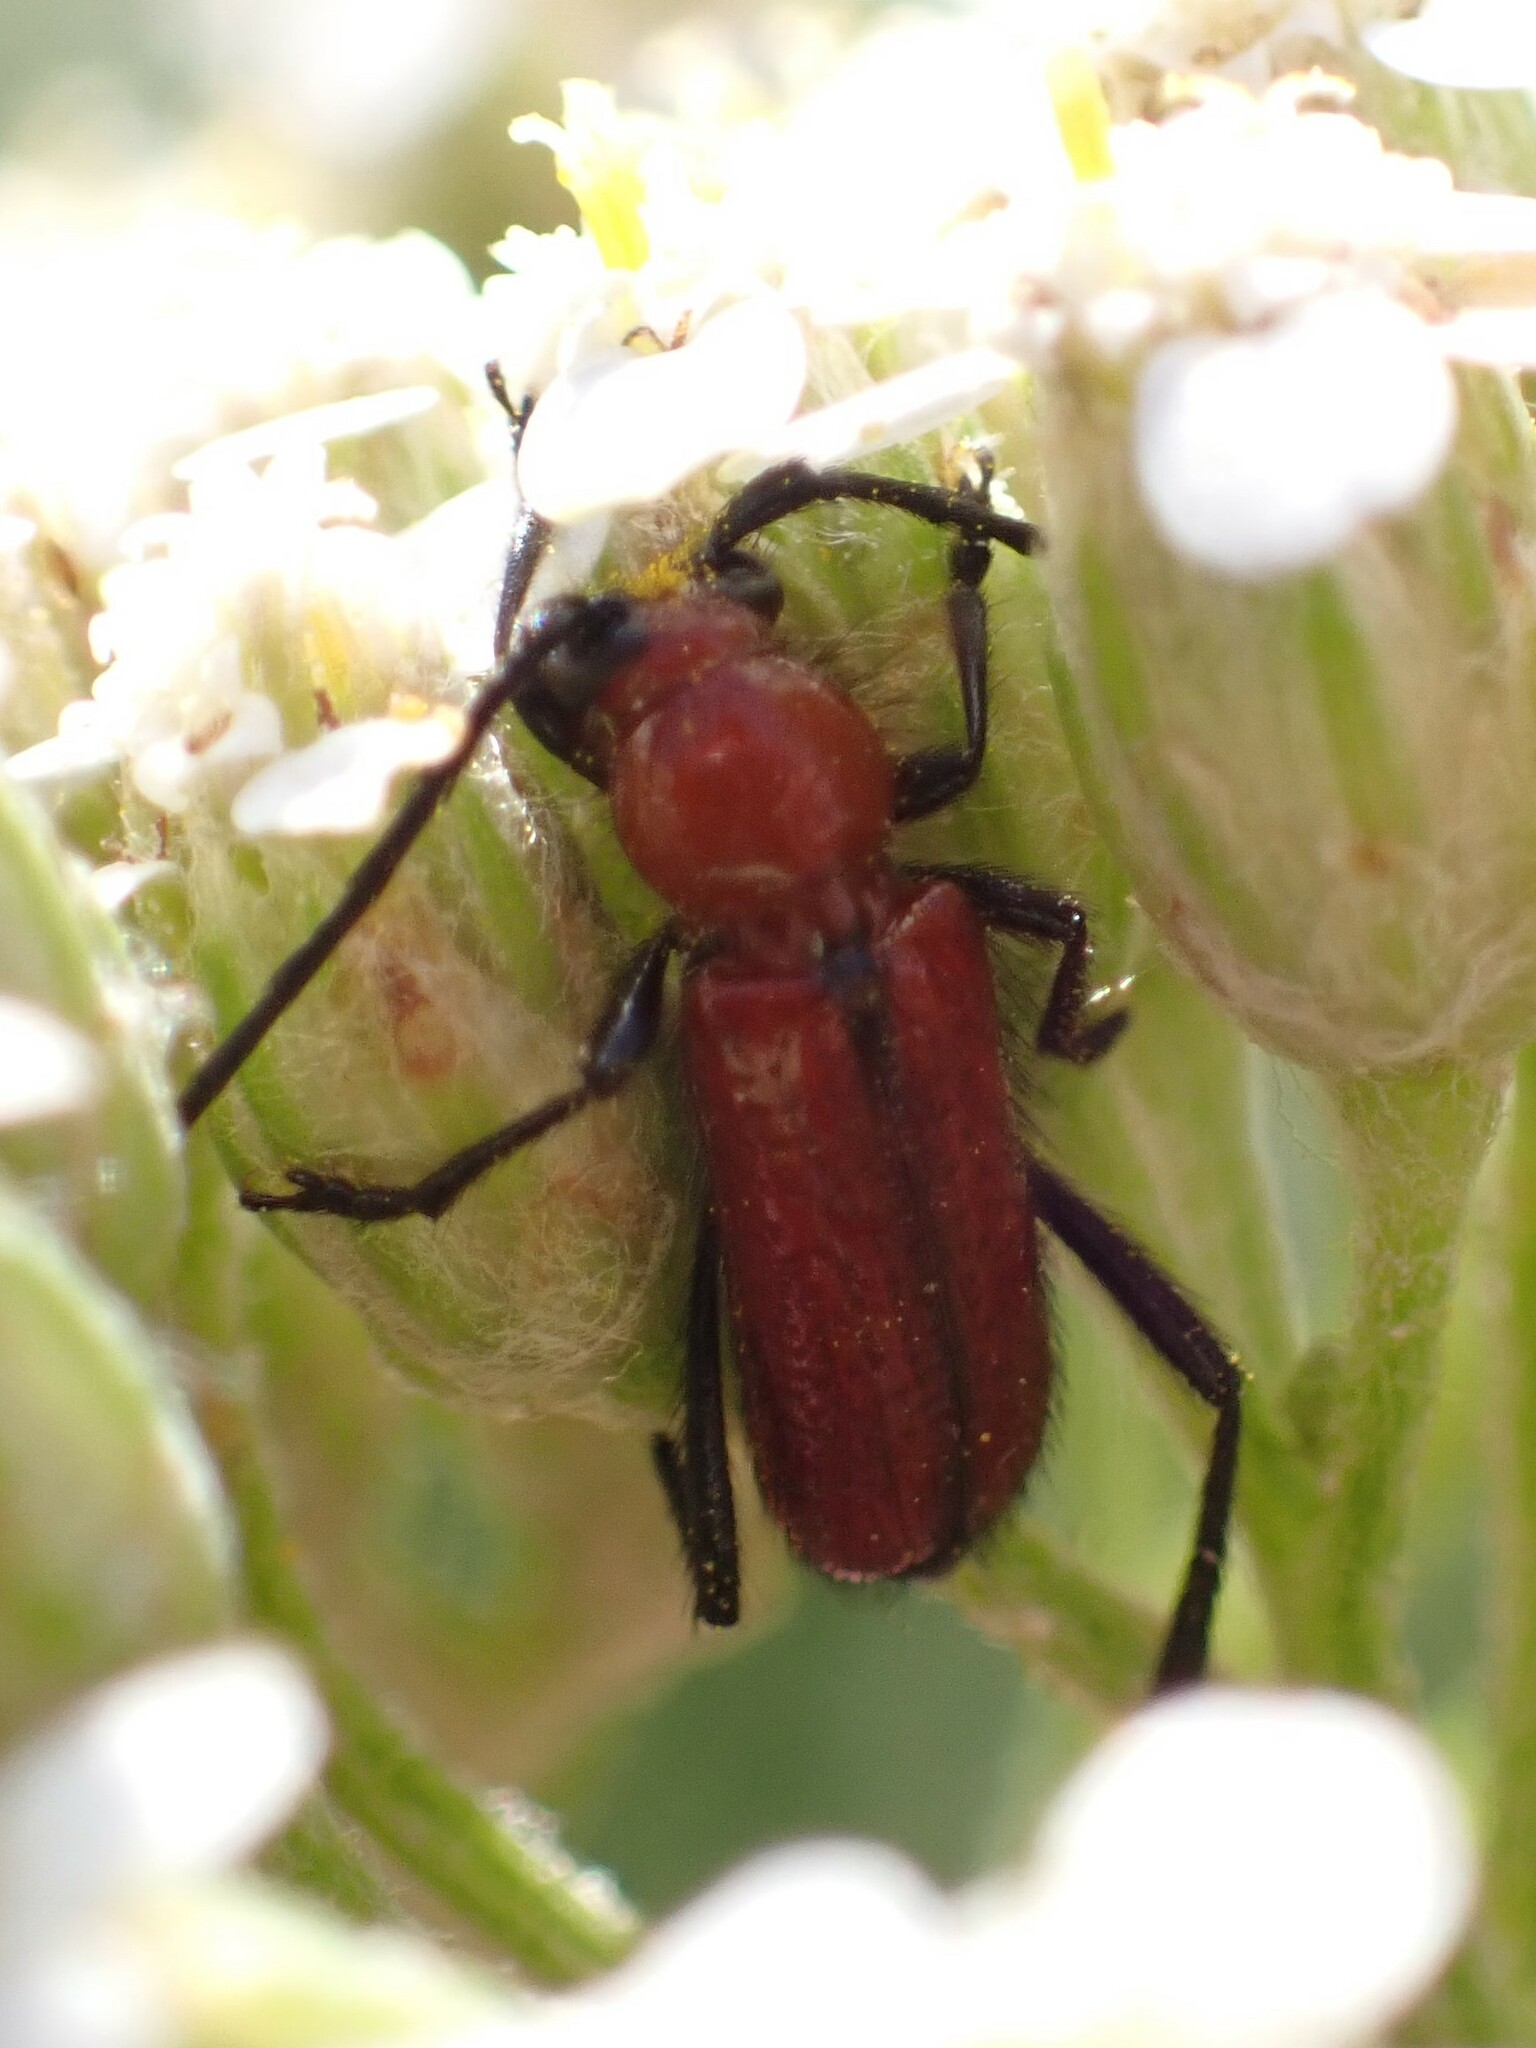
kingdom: Animalia
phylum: Arthropoda
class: Insecta
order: Coleoptera
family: Cerambycidae
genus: Batyle
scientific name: Batyle suturalis
